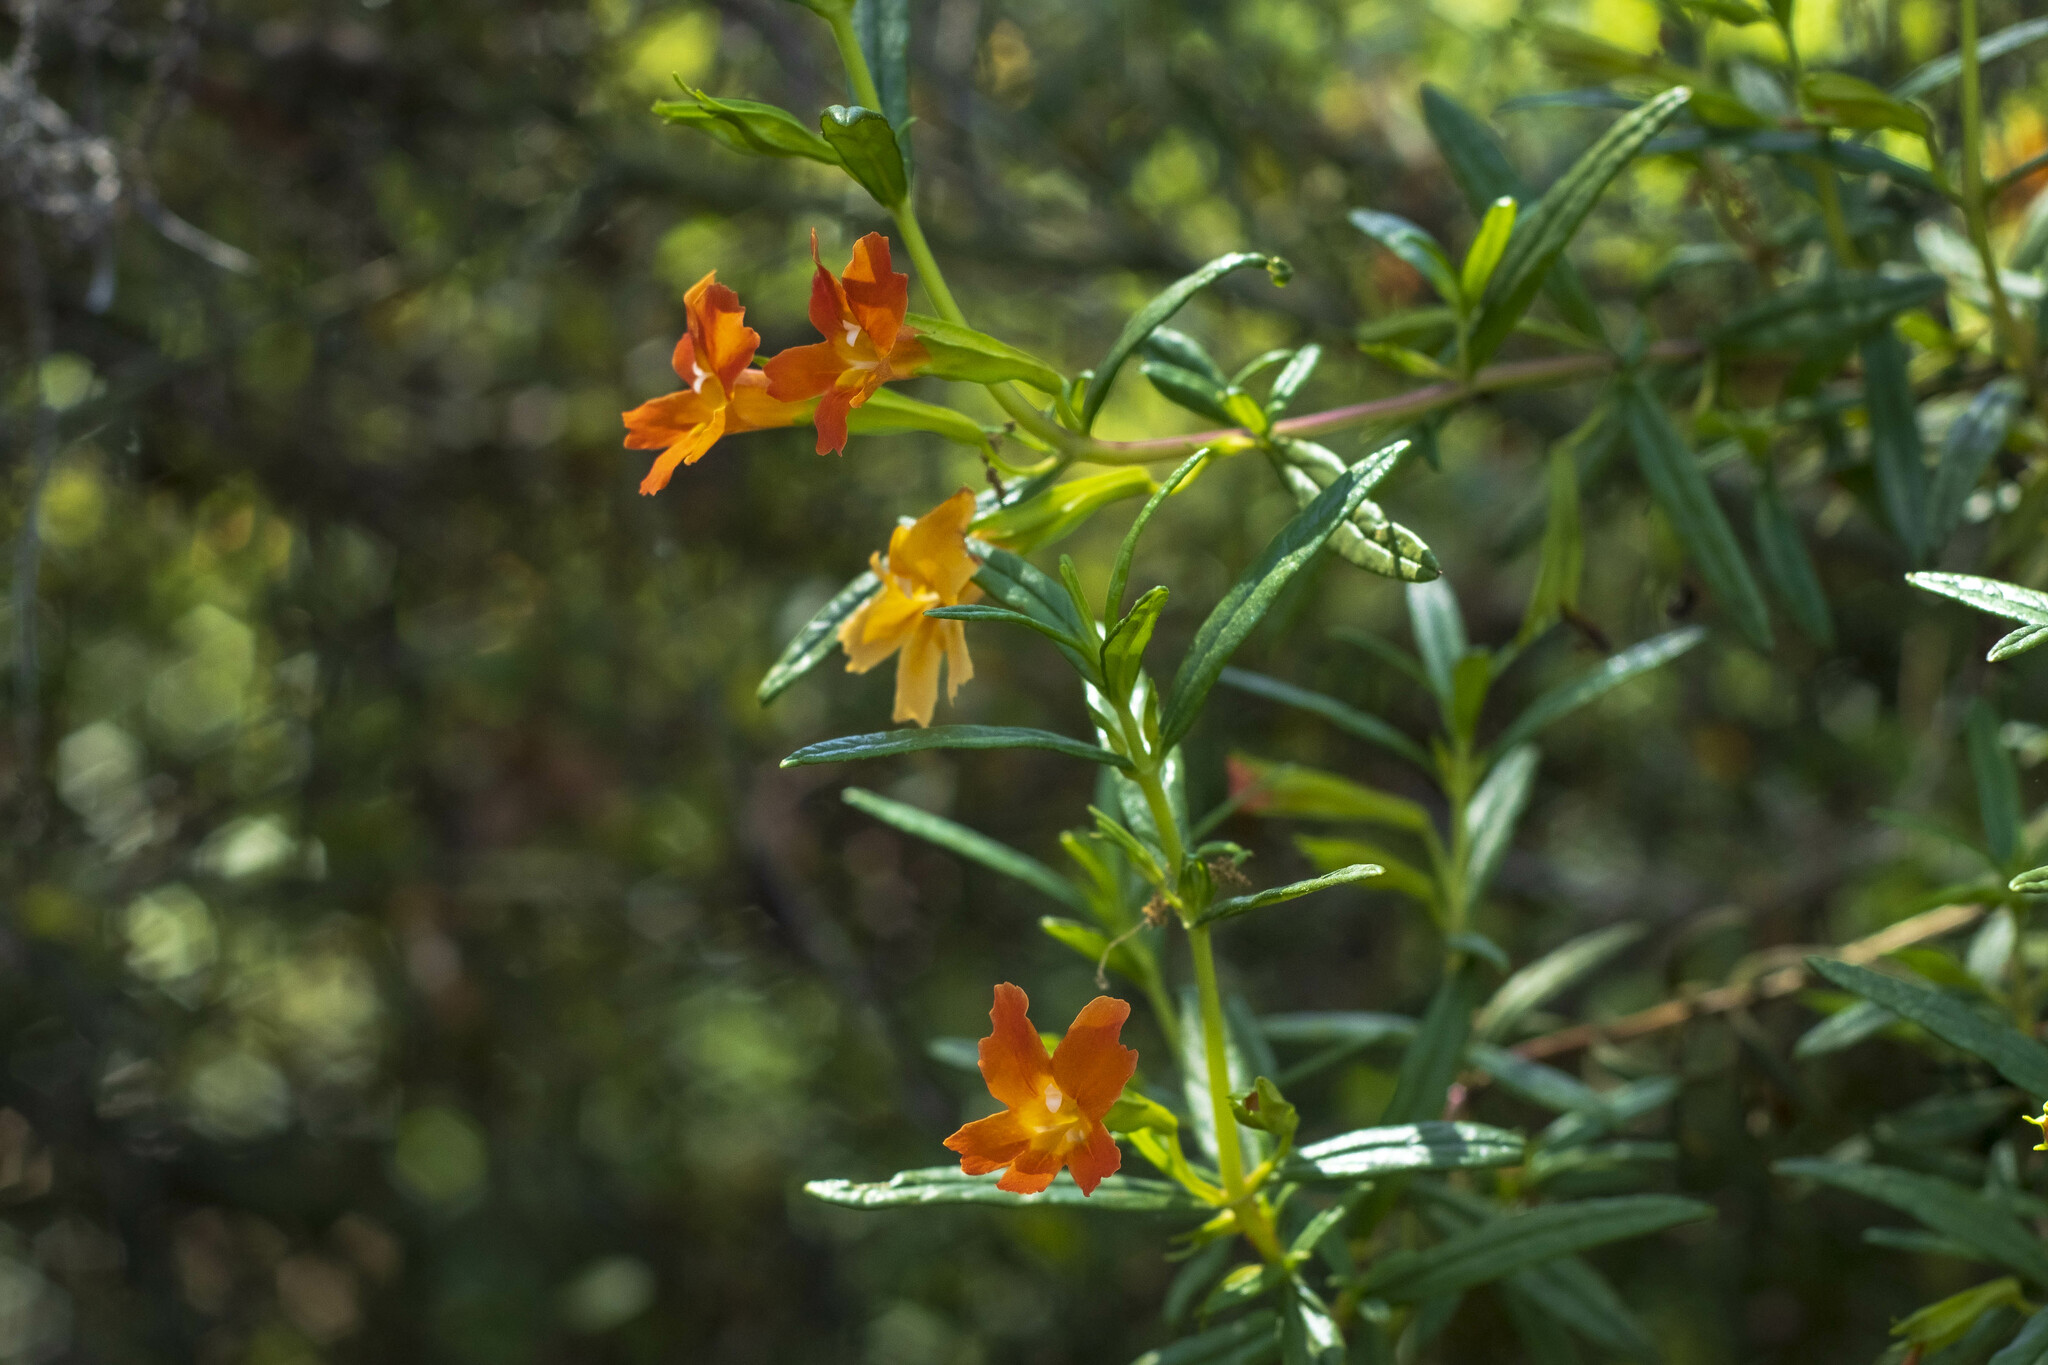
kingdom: Plantae
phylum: Tracheophyta
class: Magnoliopsida
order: Lamiales
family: Phrymaceae
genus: Diplacus
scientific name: Diplacus australis
